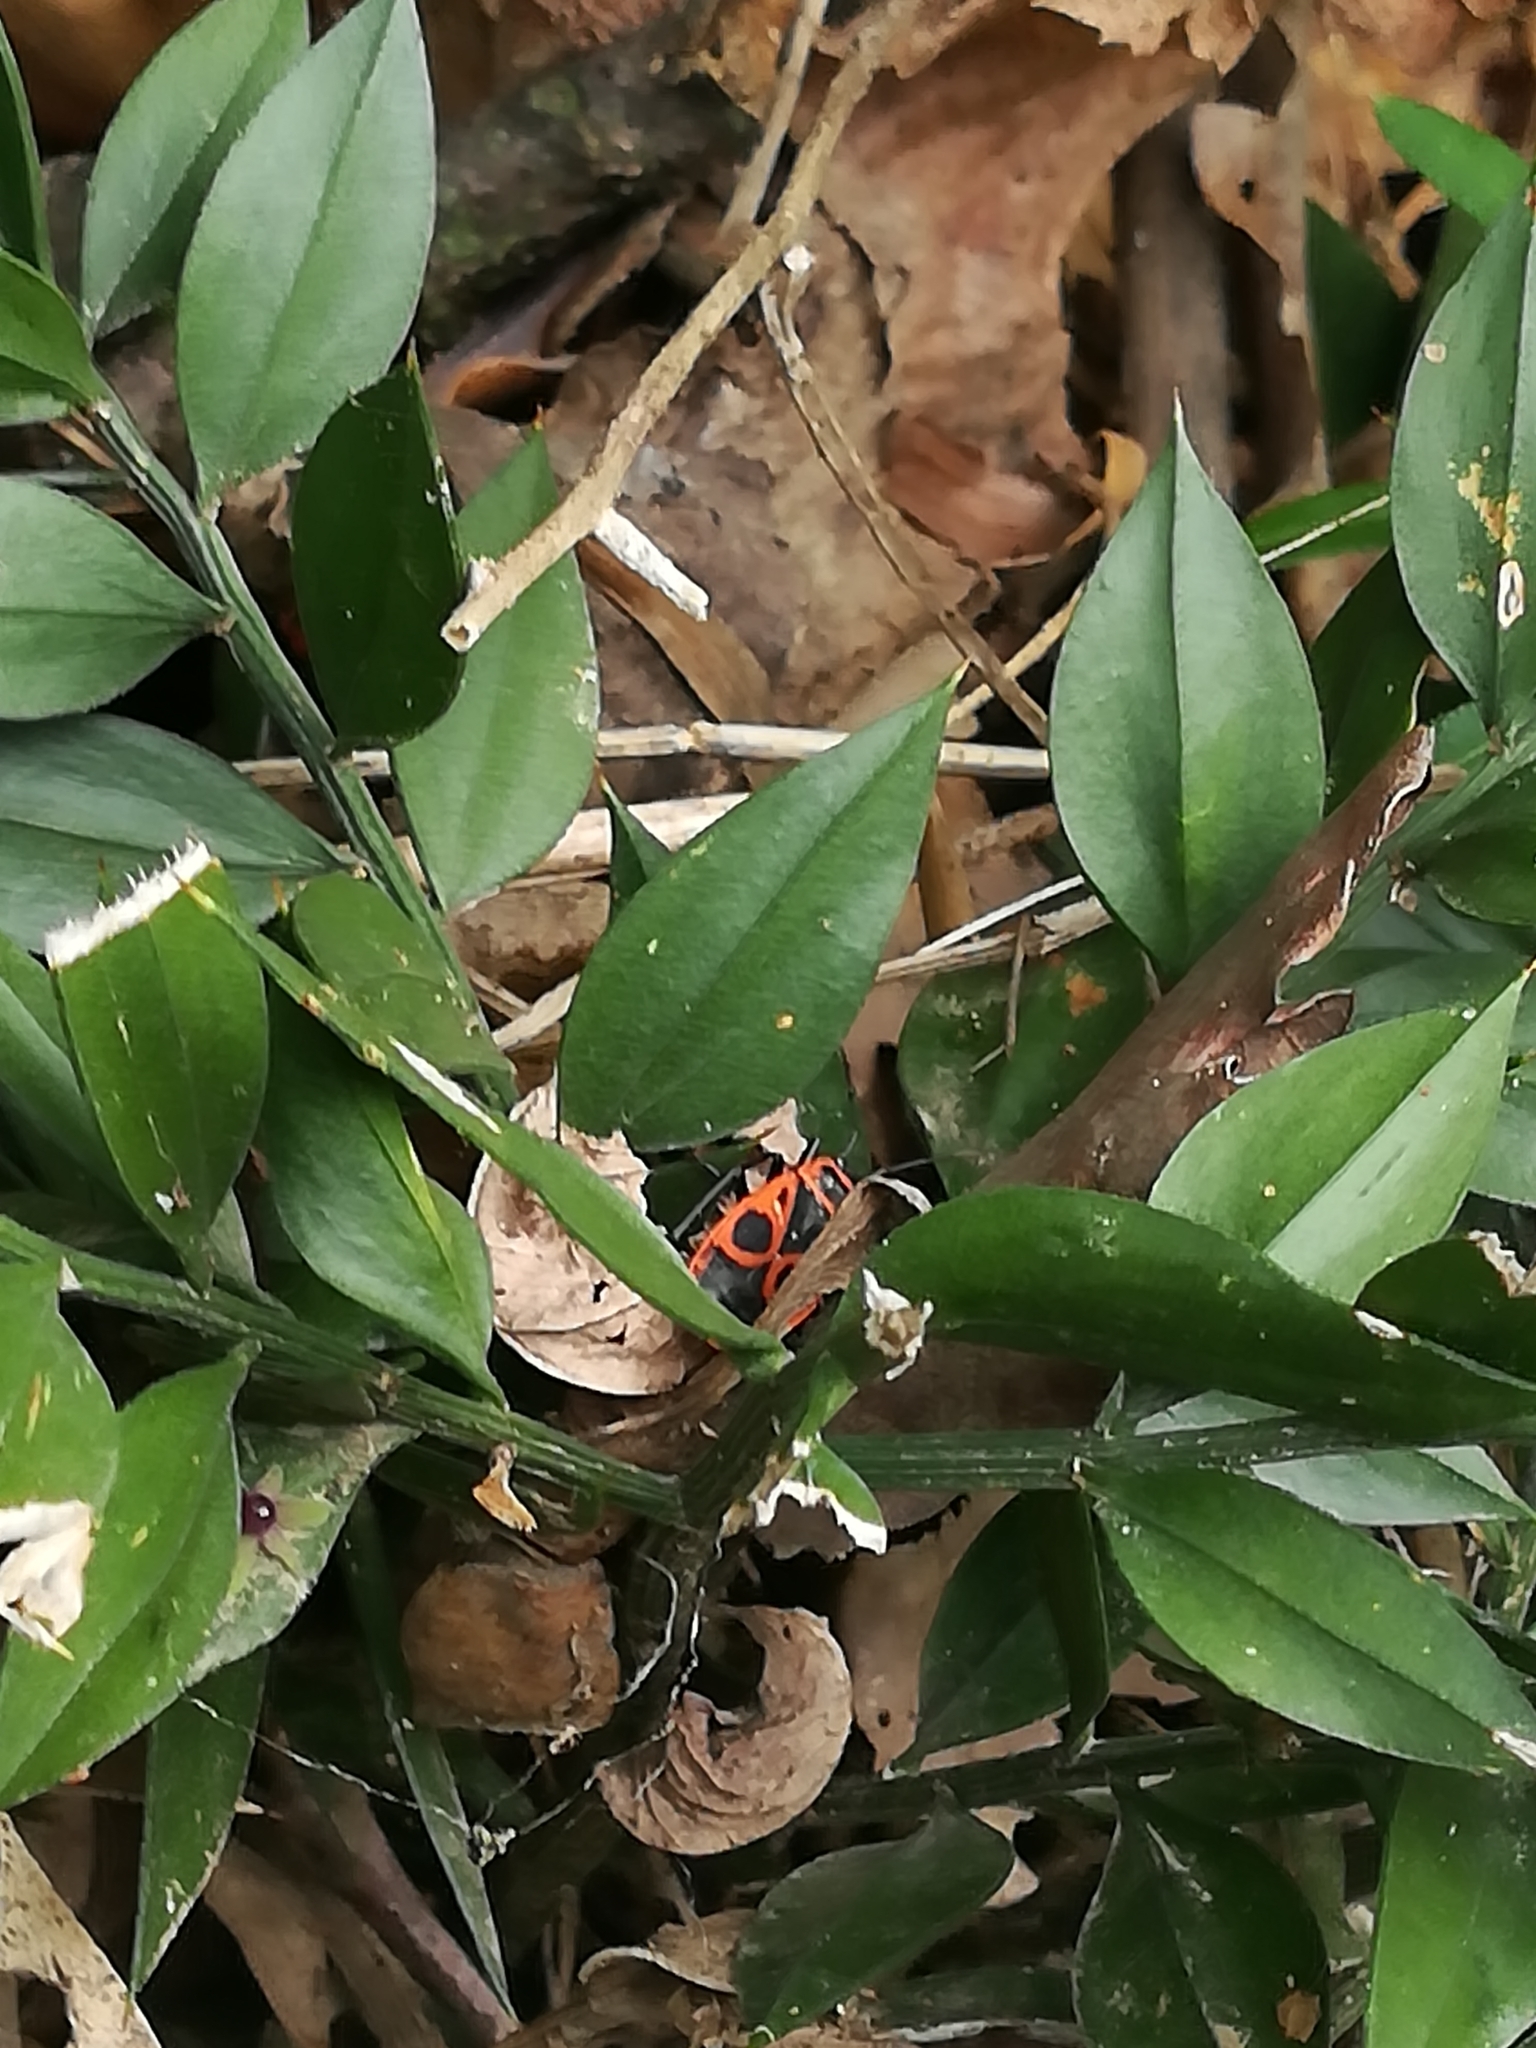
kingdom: Animalia
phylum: Arthropoda
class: Insecta
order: Hemiptera
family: Pyrrhocoridae
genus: Pyrrhocoris
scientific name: Pyrrhocoris apterus
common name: Firebug
